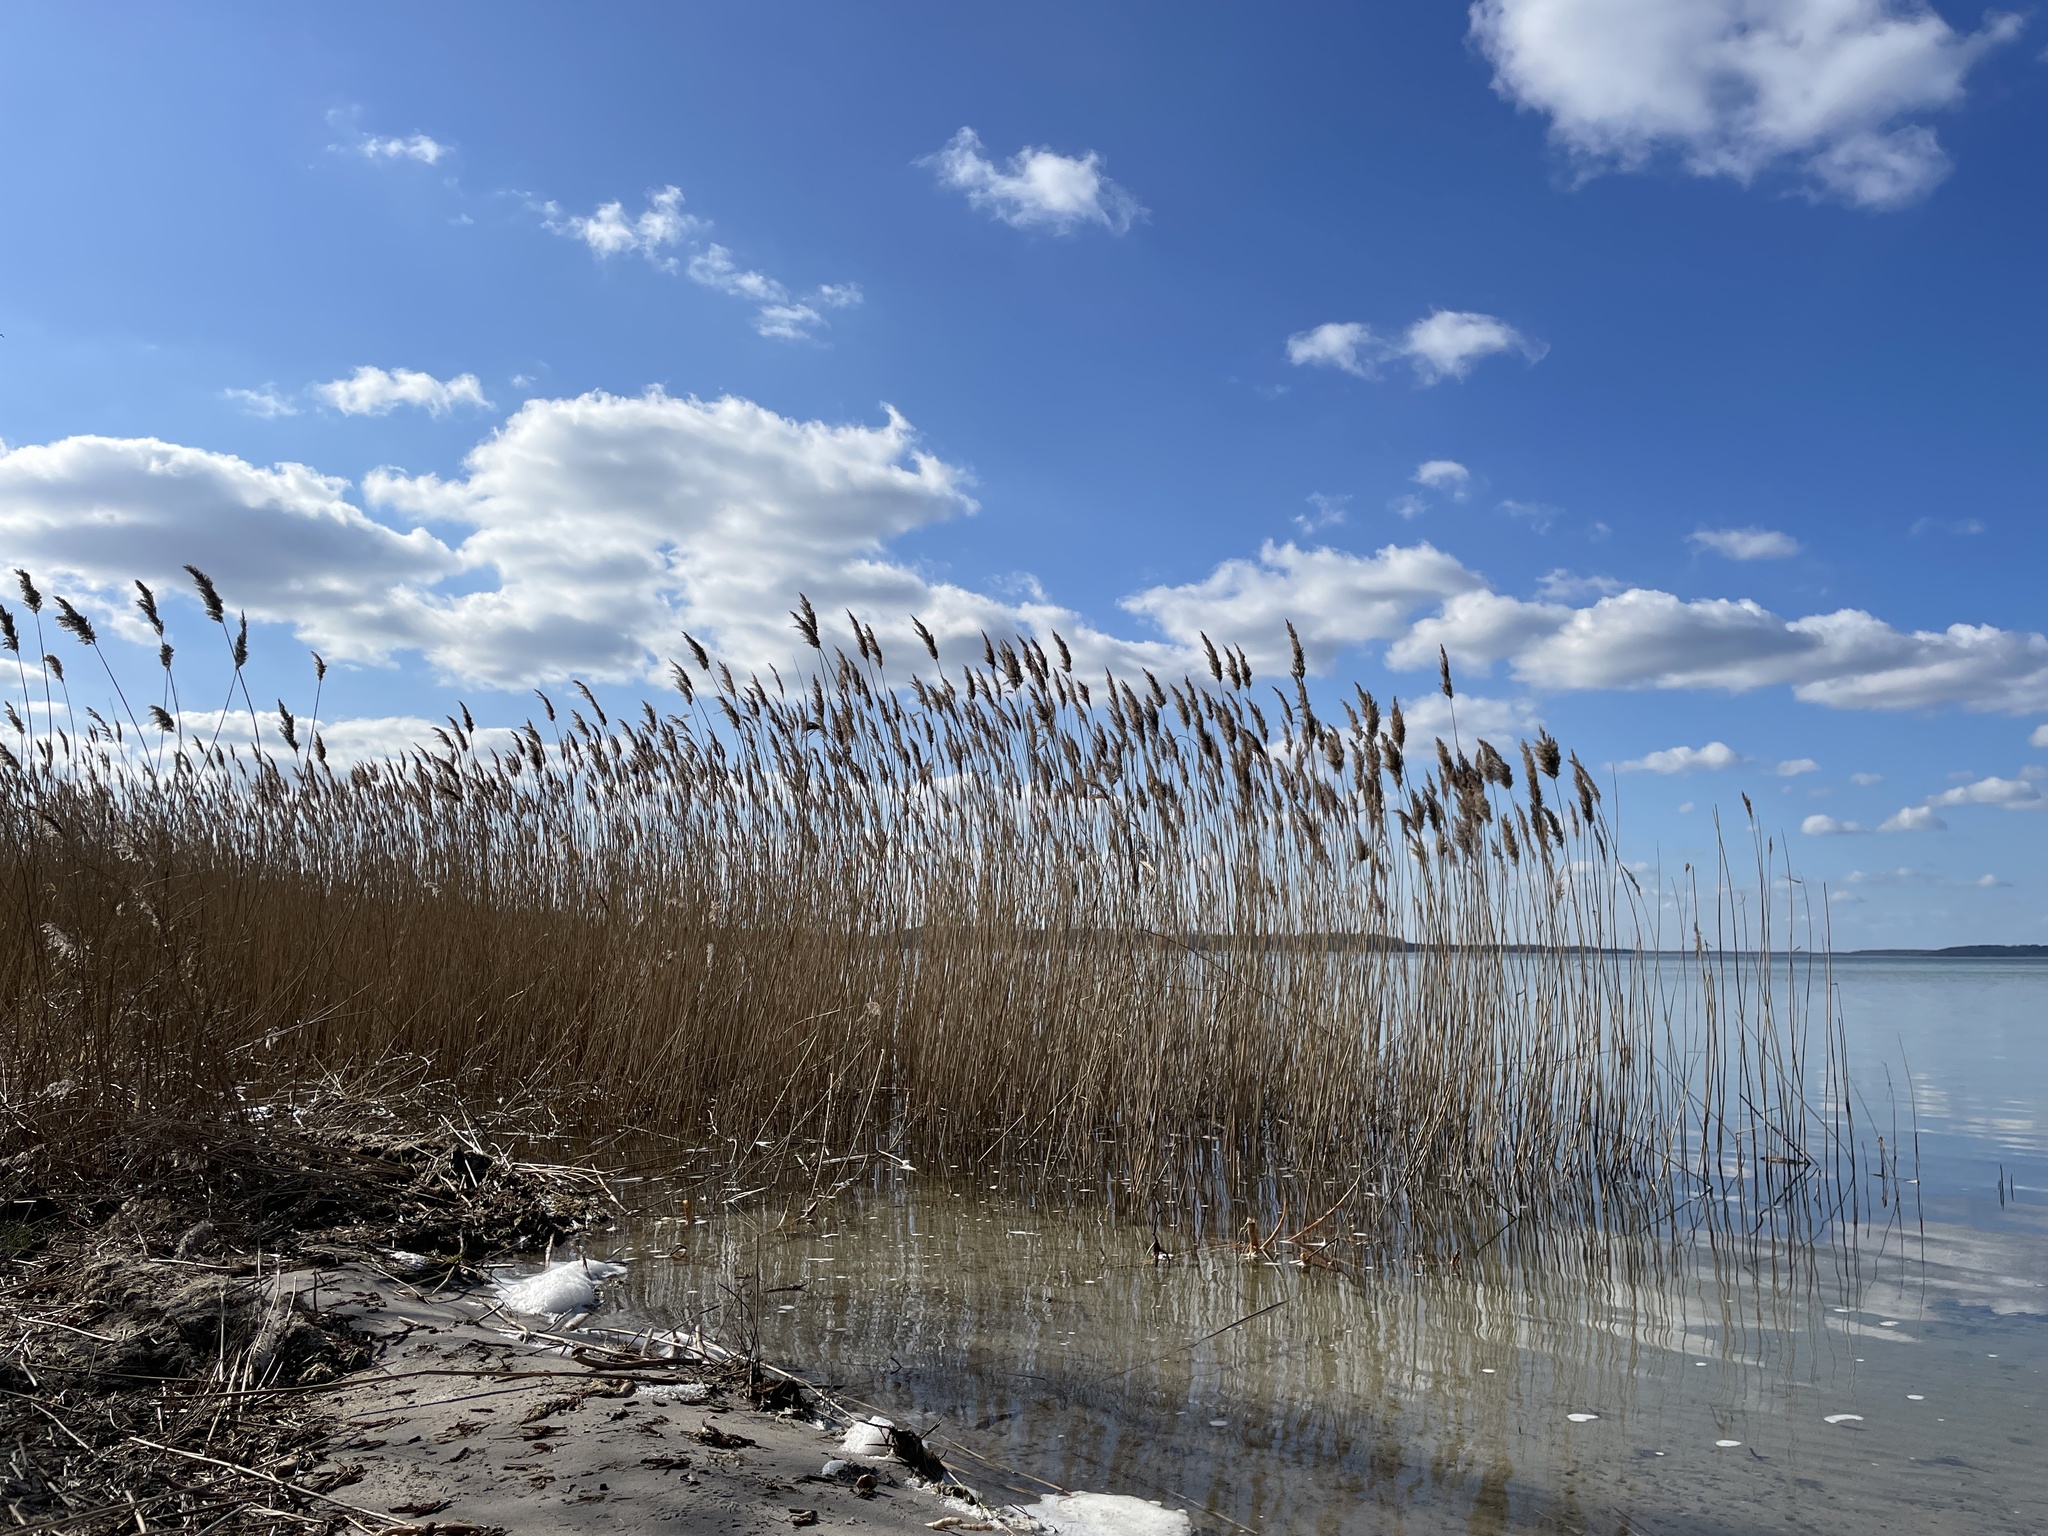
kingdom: Plantae
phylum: Tracheophyta
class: Liliopsida
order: Poales
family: Poaceae
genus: Phragmites
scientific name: Phragmites australis
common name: Common reed
